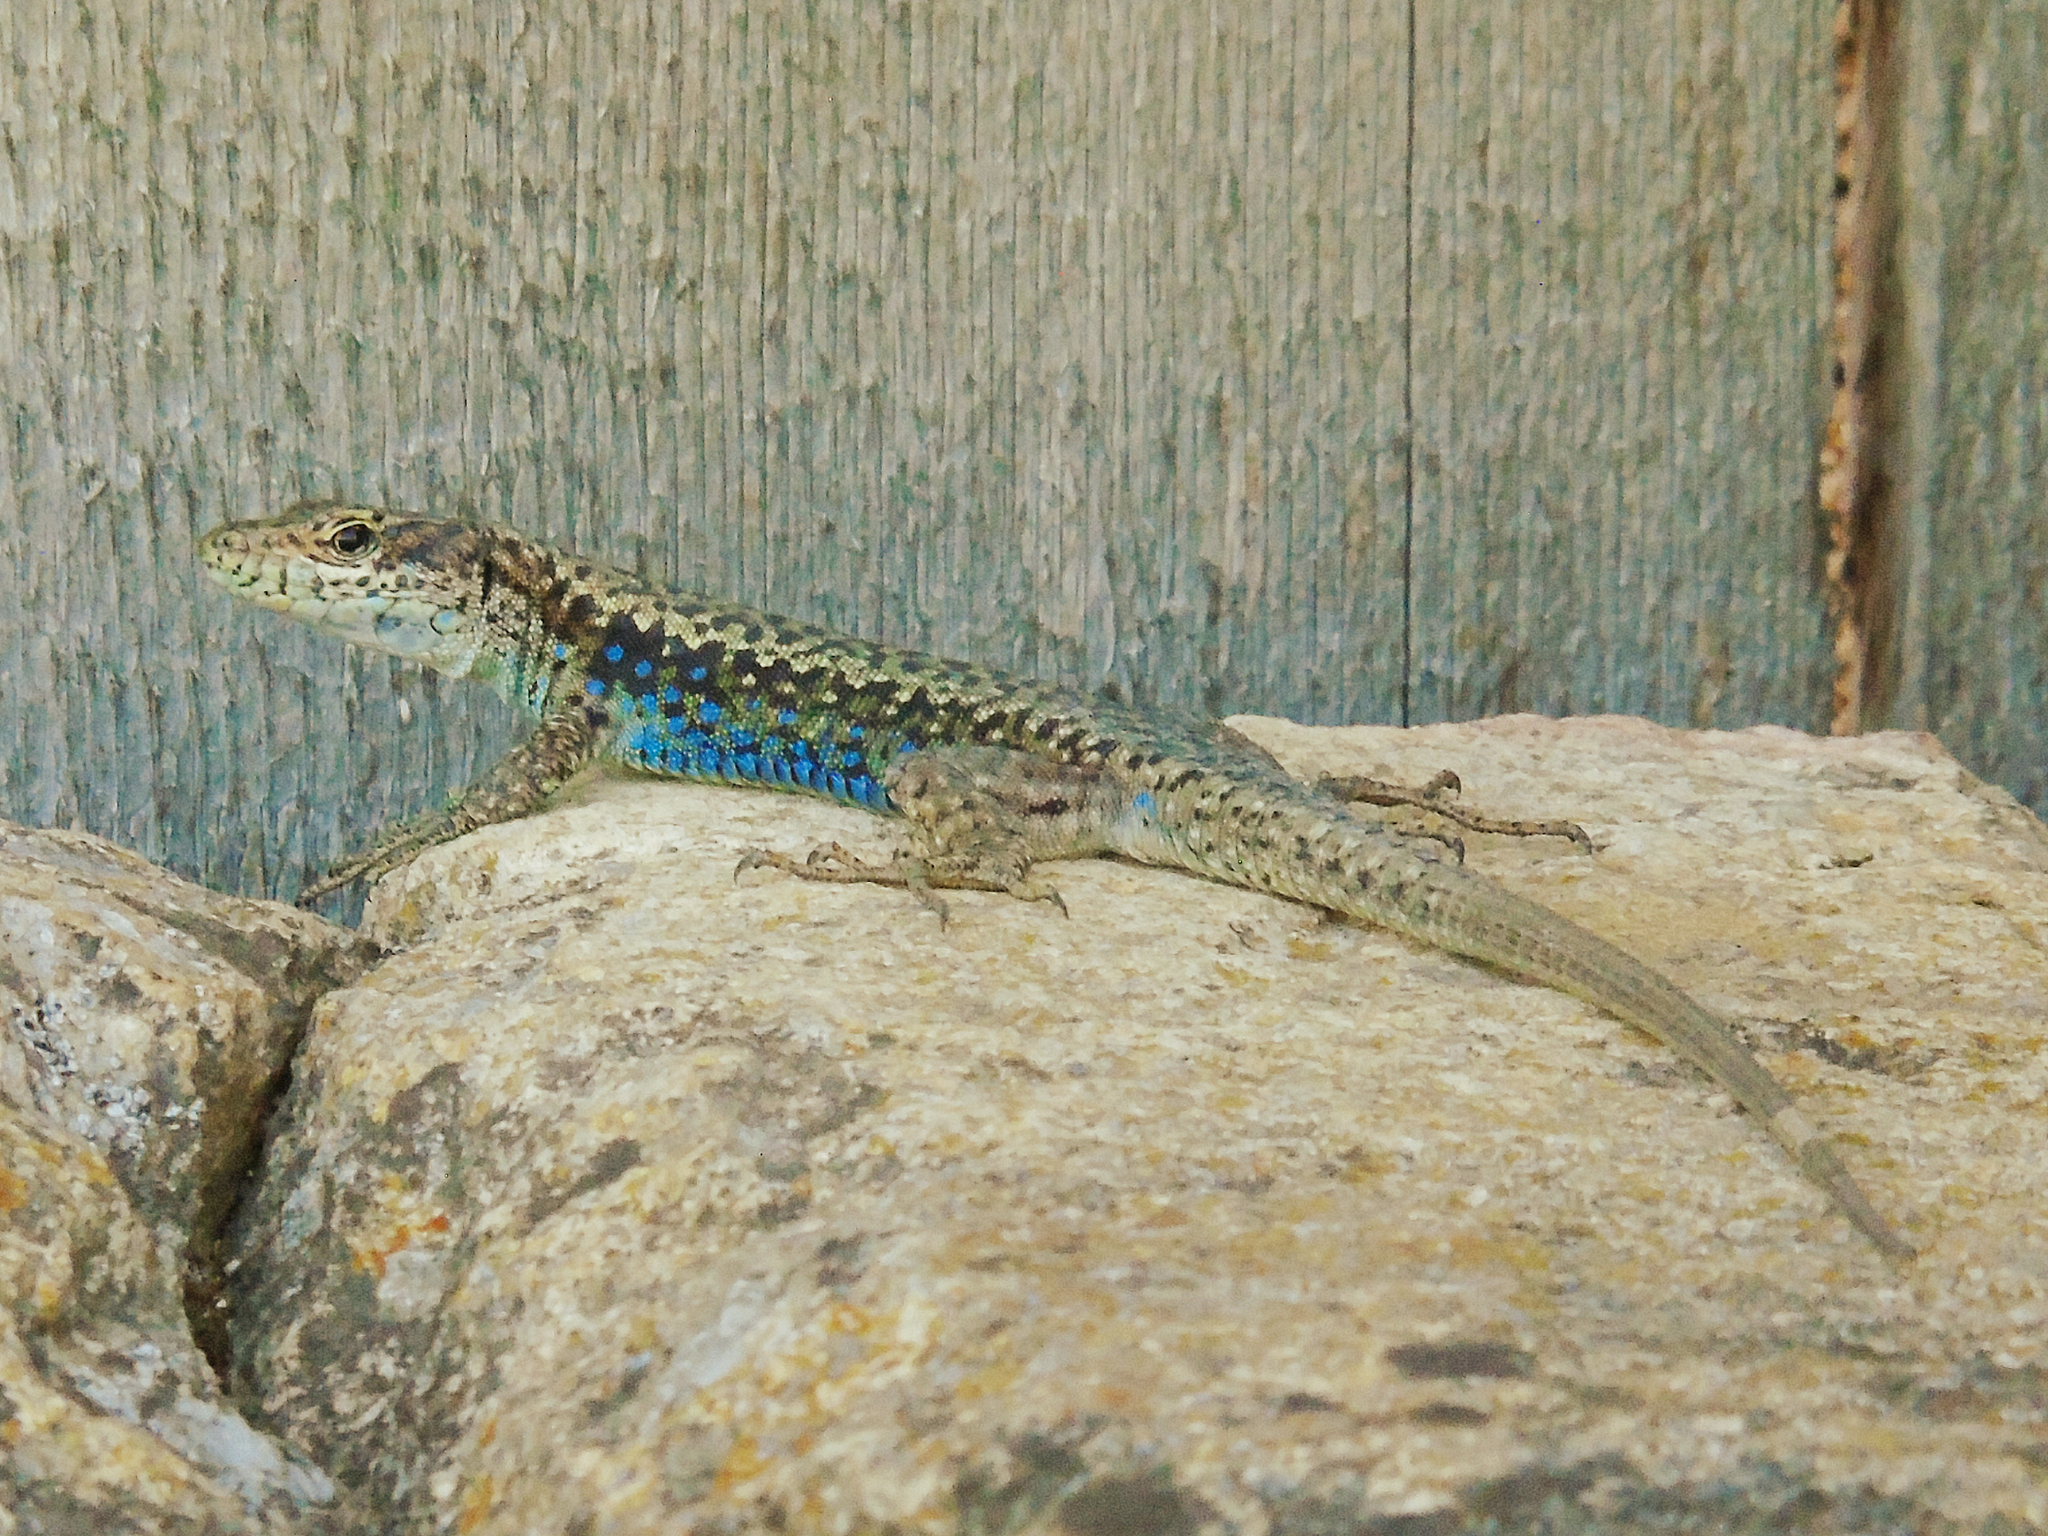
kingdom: Animalia
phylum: Chordata
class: Squamata
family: Lacertidae
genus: Darevskia
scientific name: Darevskia rudis
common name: Spiny-tailed lizard
